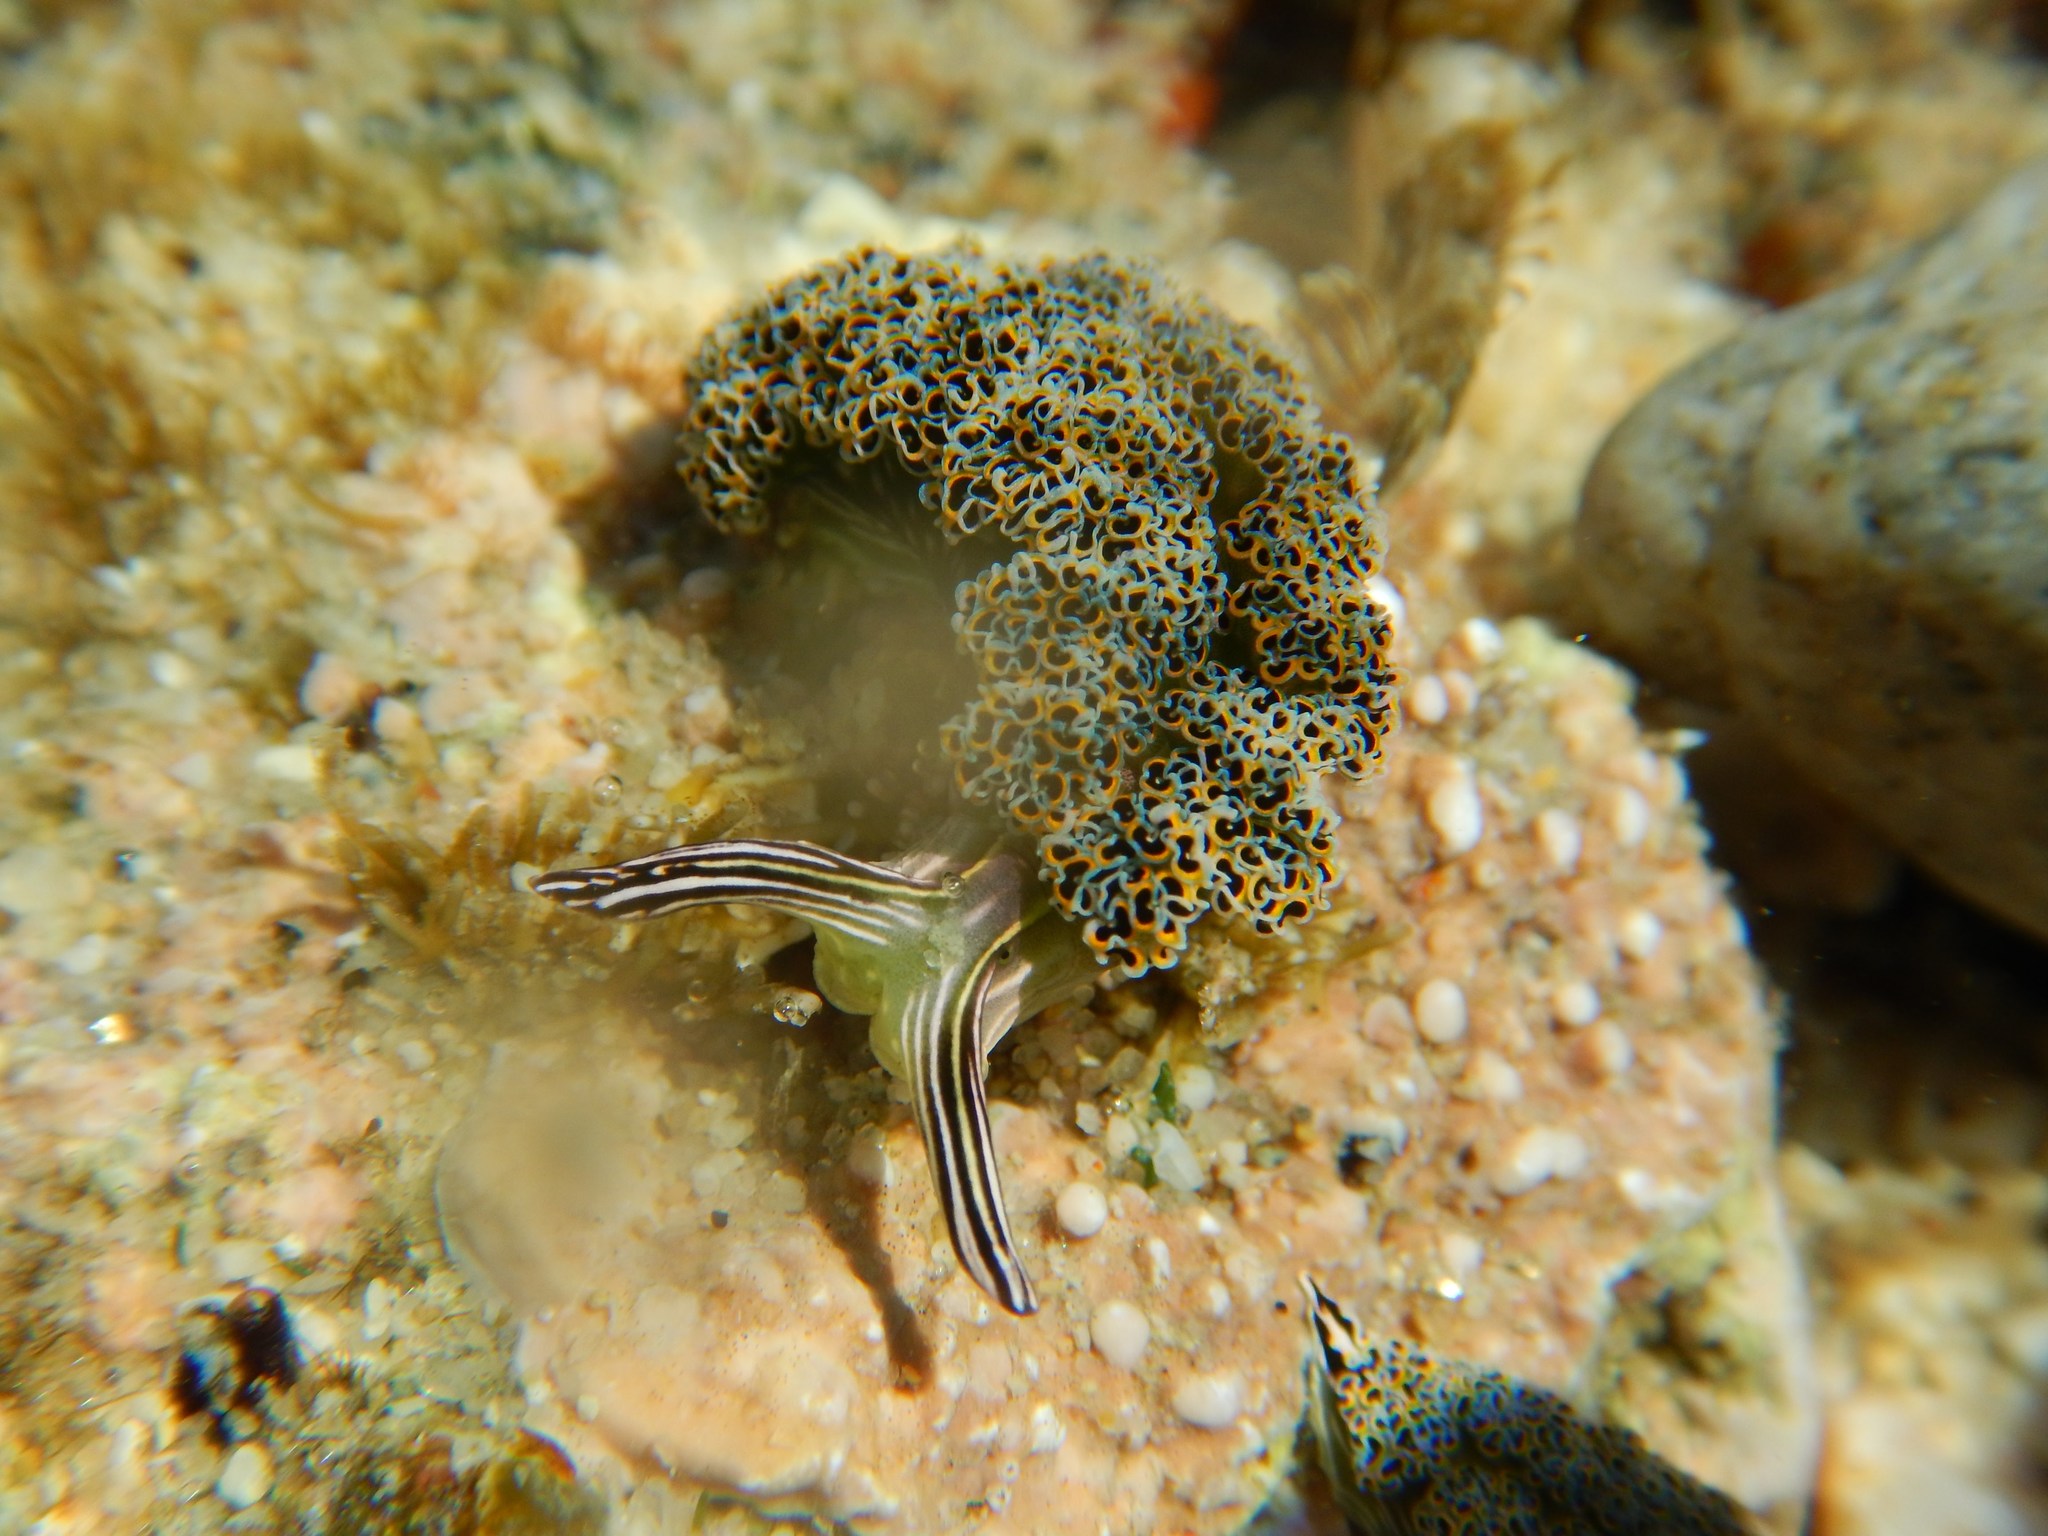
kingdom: Animalia
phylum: Mollusca
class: Gastropoda
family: Plakobranchidae
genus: Elysia
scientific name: Elysia diomedea
